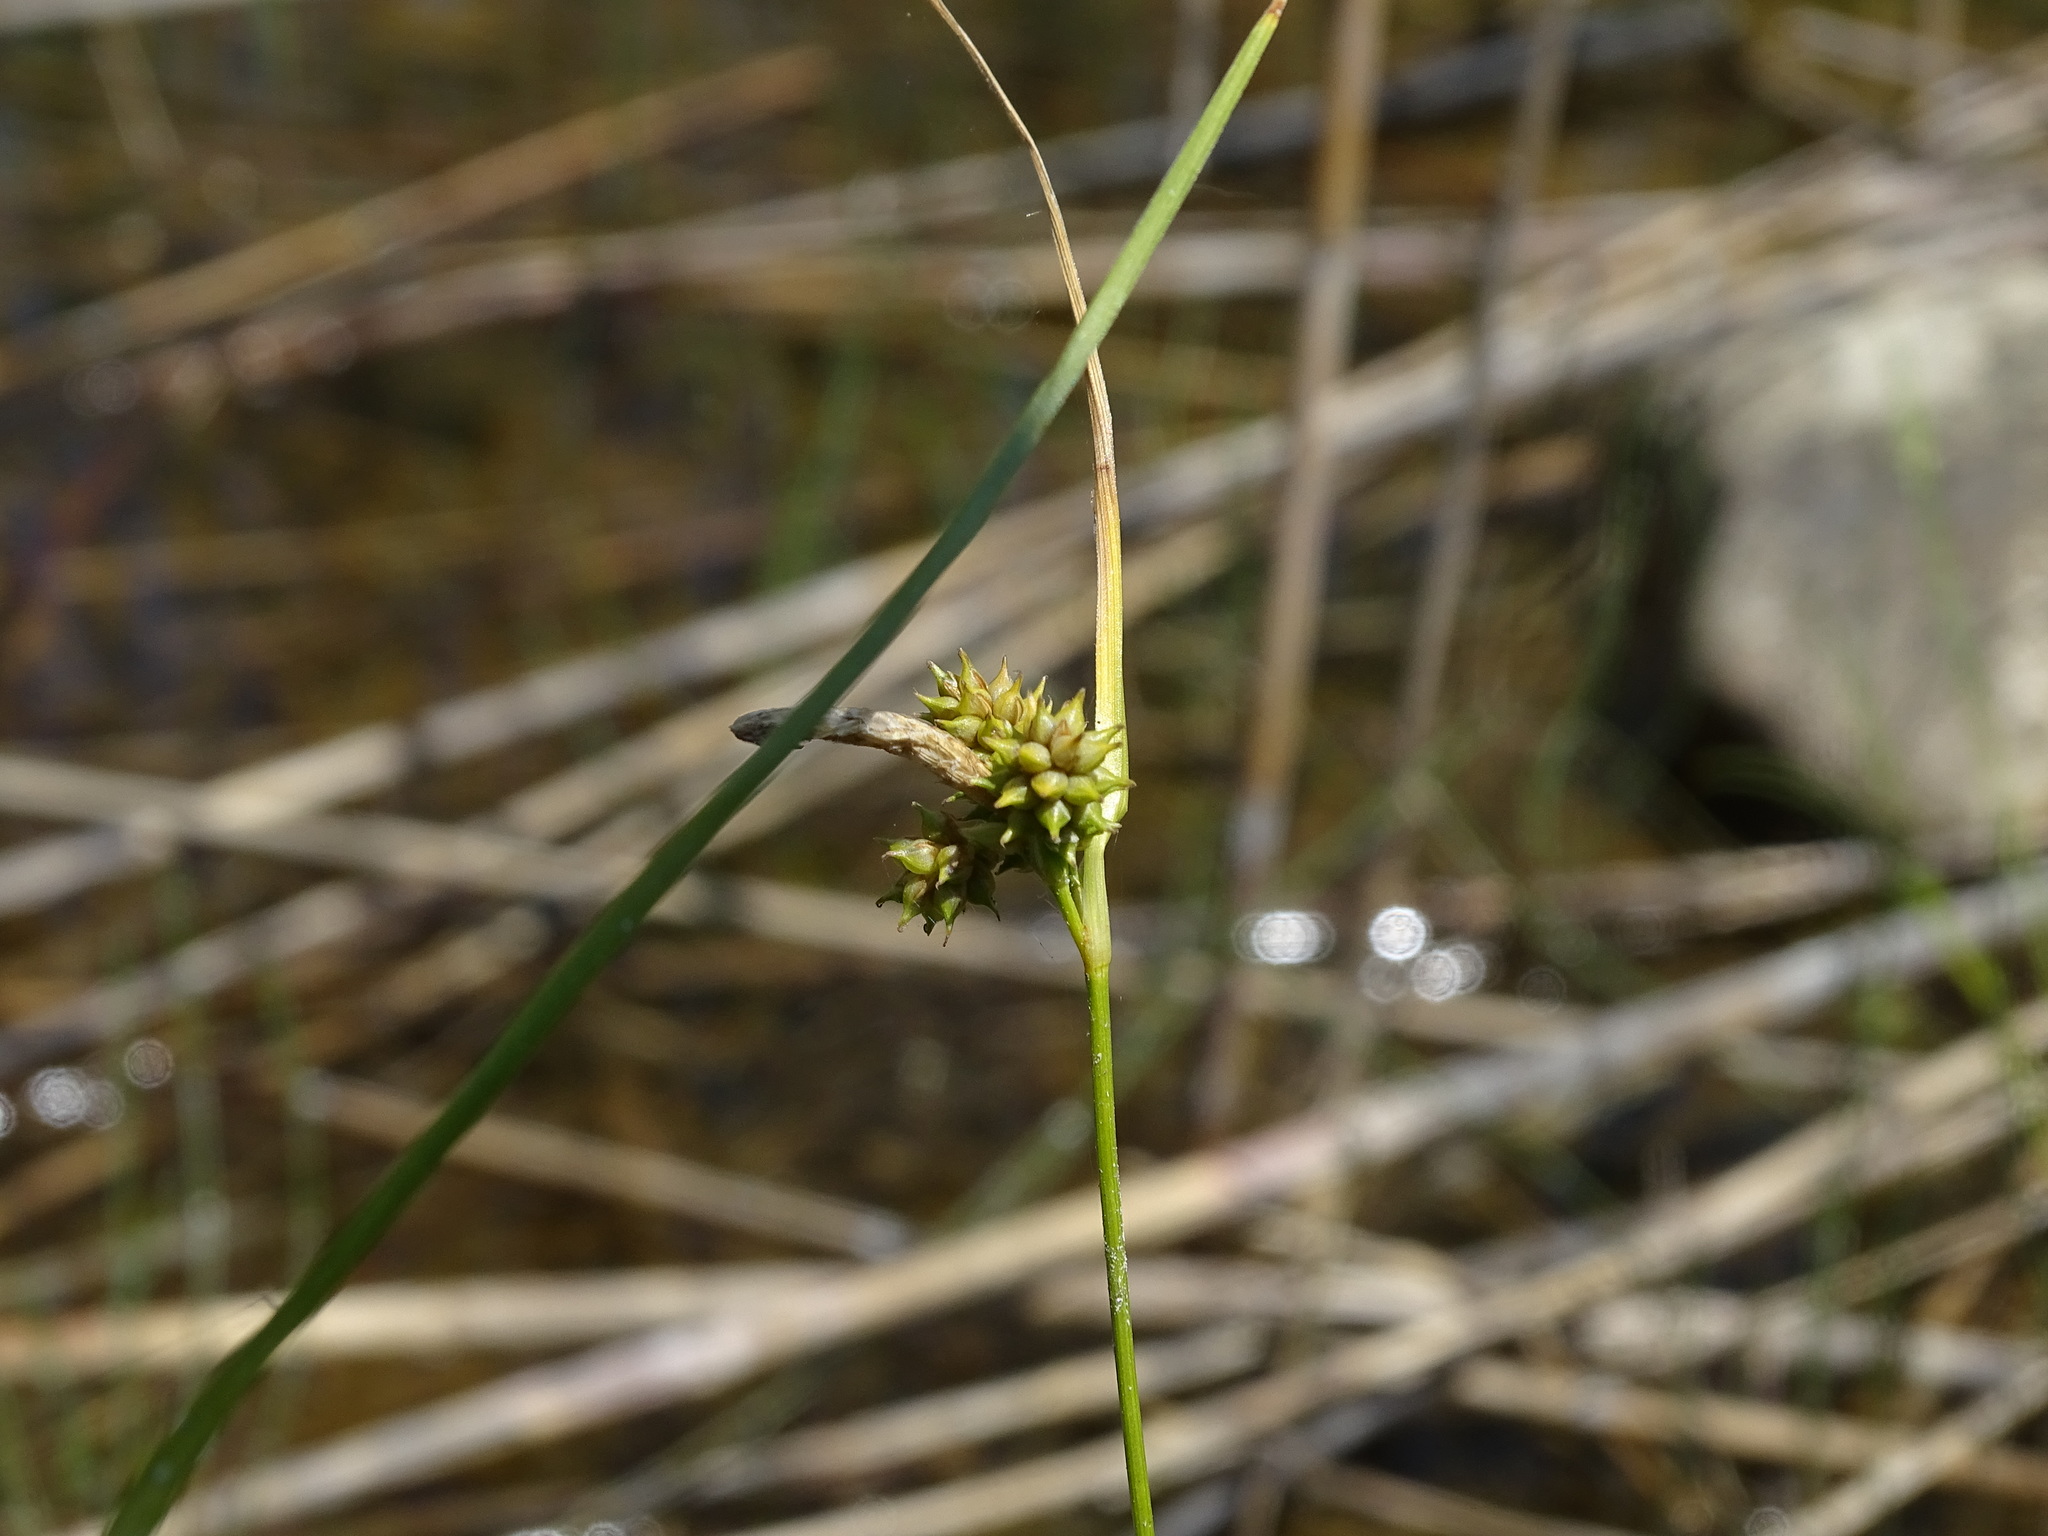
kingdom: Plantae
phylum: Tracheophyta
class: Liliopsida
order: Poales
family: Cyperaceae
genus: Carex
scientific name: Carex
